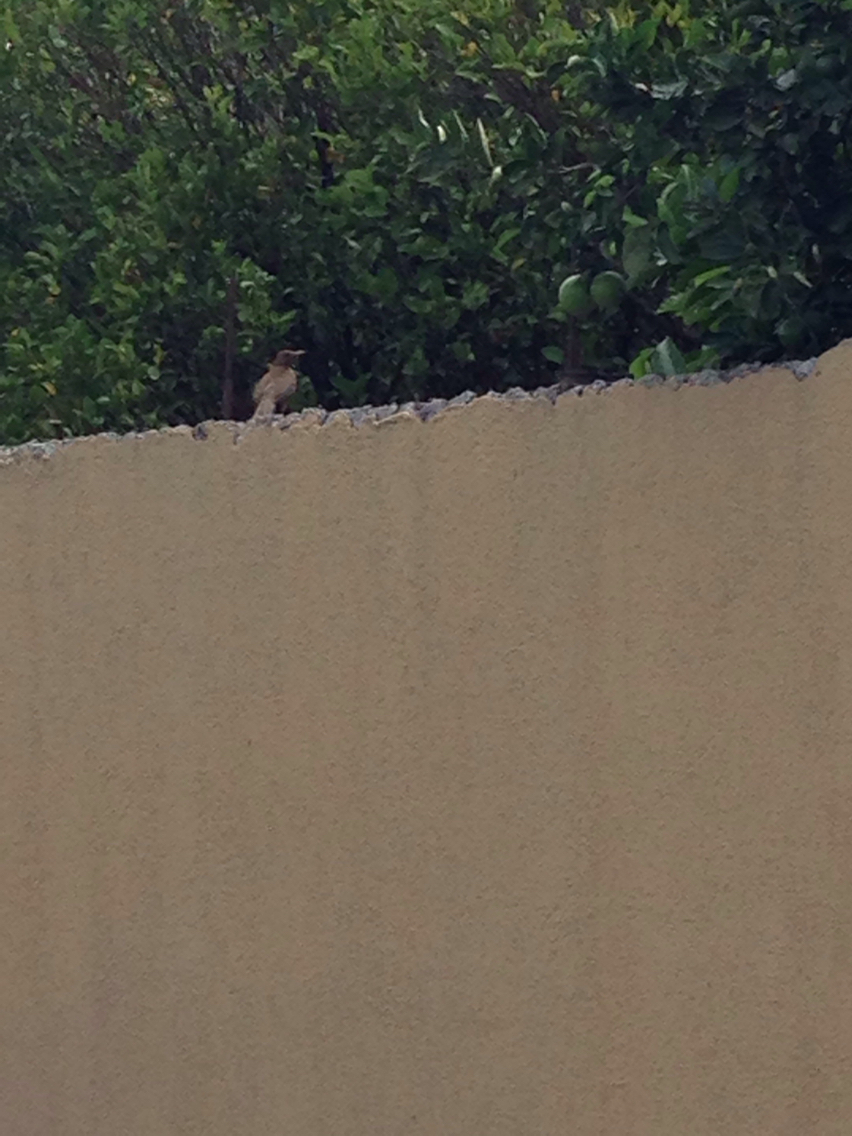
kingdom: Animalia
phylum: Chordata
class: Aves
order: Passeriformes
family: Turdidae
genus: Turdus
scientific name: Turdus grayi
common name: Clay-colored thrush
